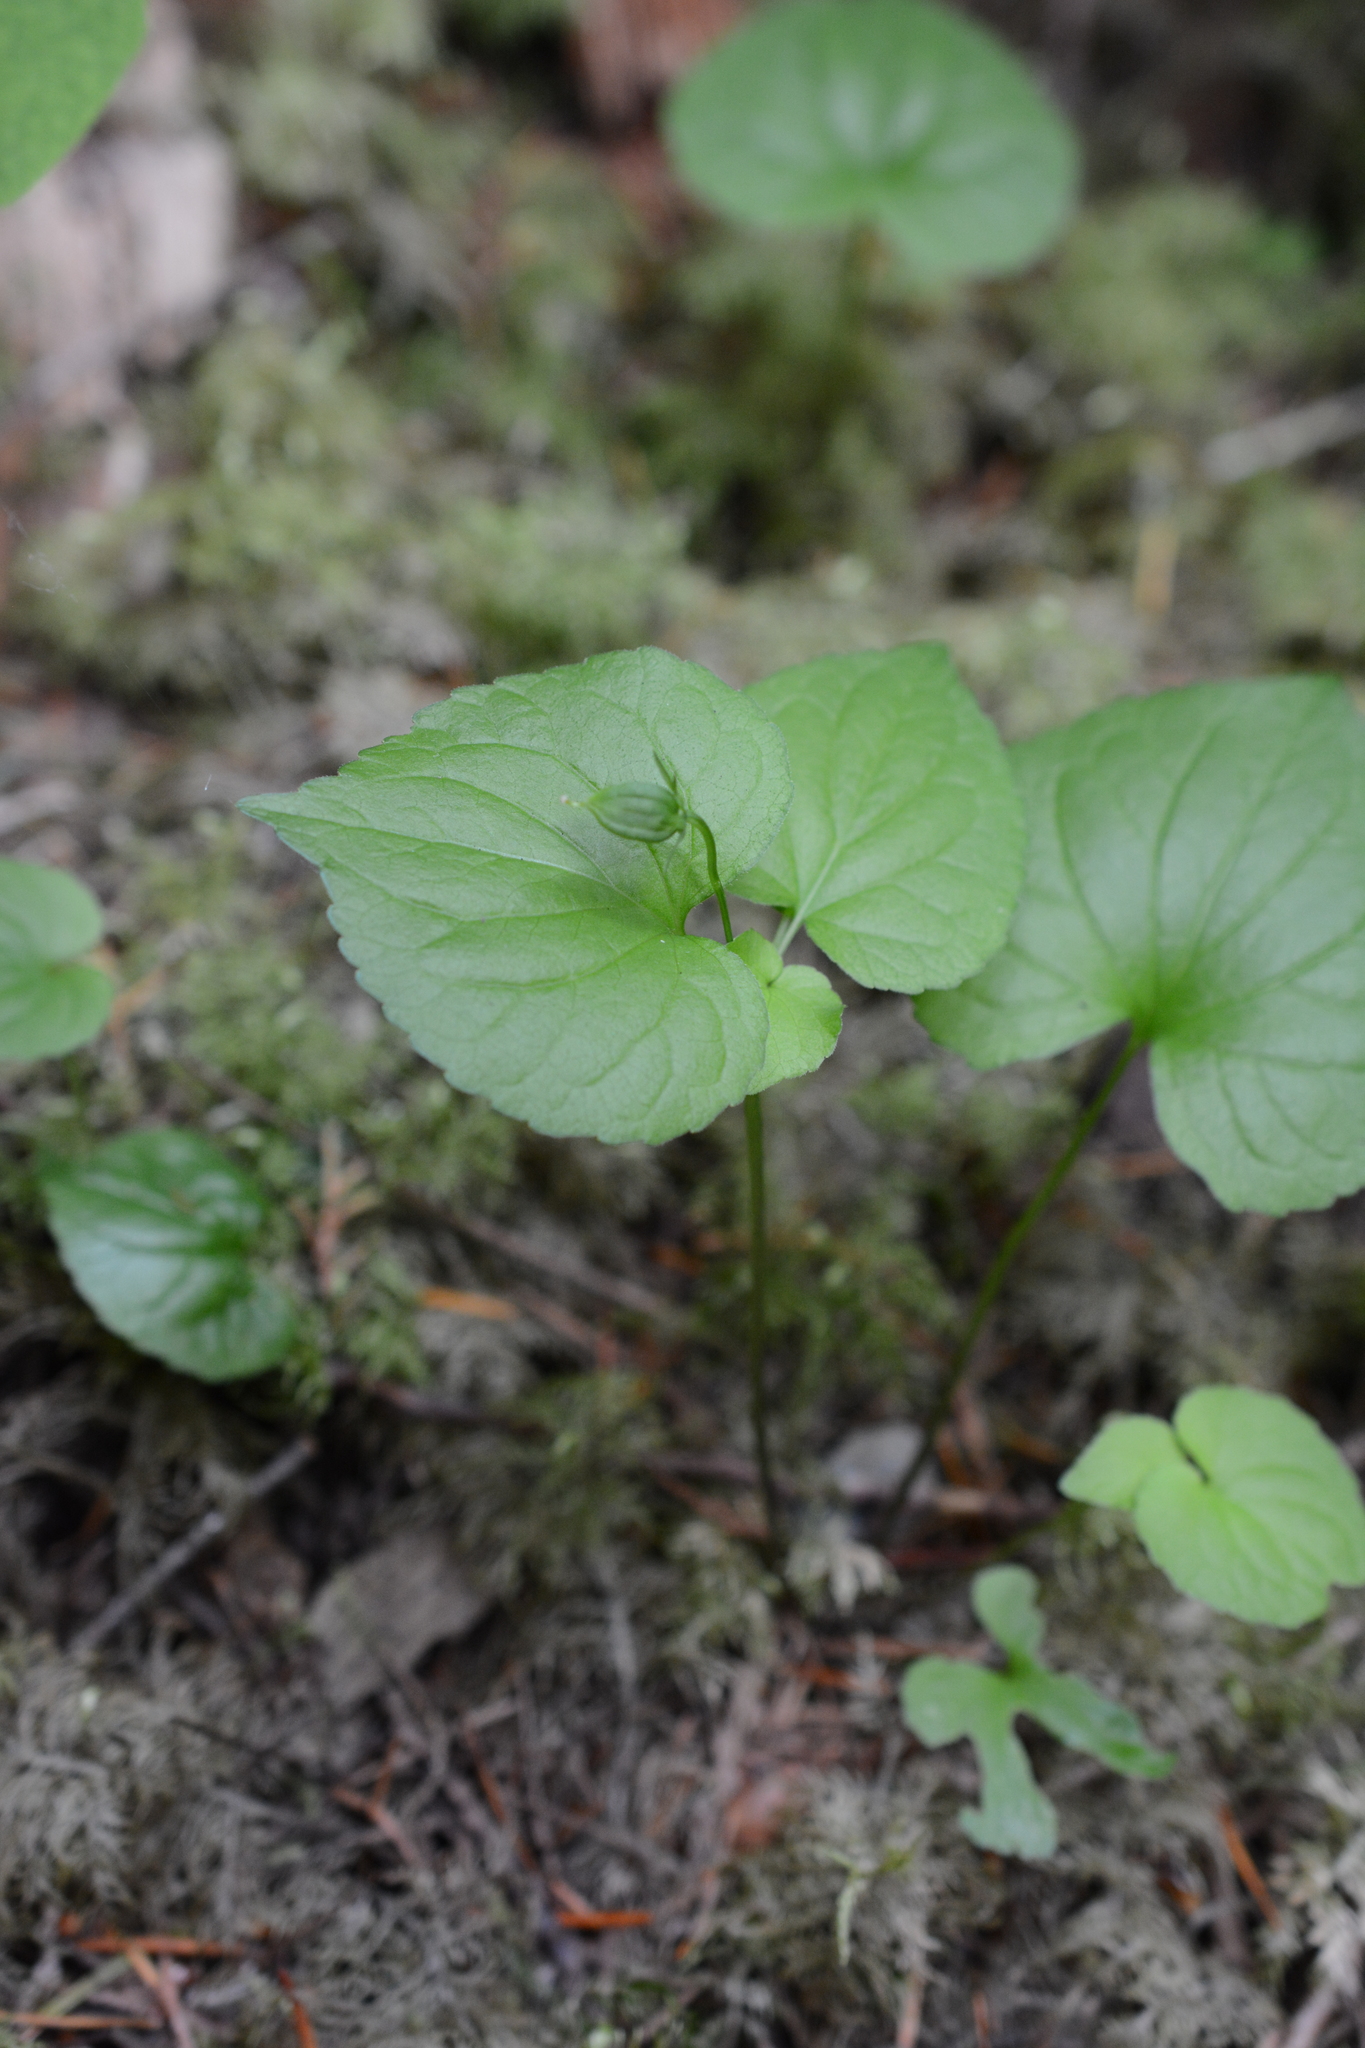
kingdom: Plantae
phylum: Tracheophyta
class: Magnoliopsida
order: Malpighiales
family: Violaceae
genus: Viola
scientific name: Viola glabella
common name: Stream violet
